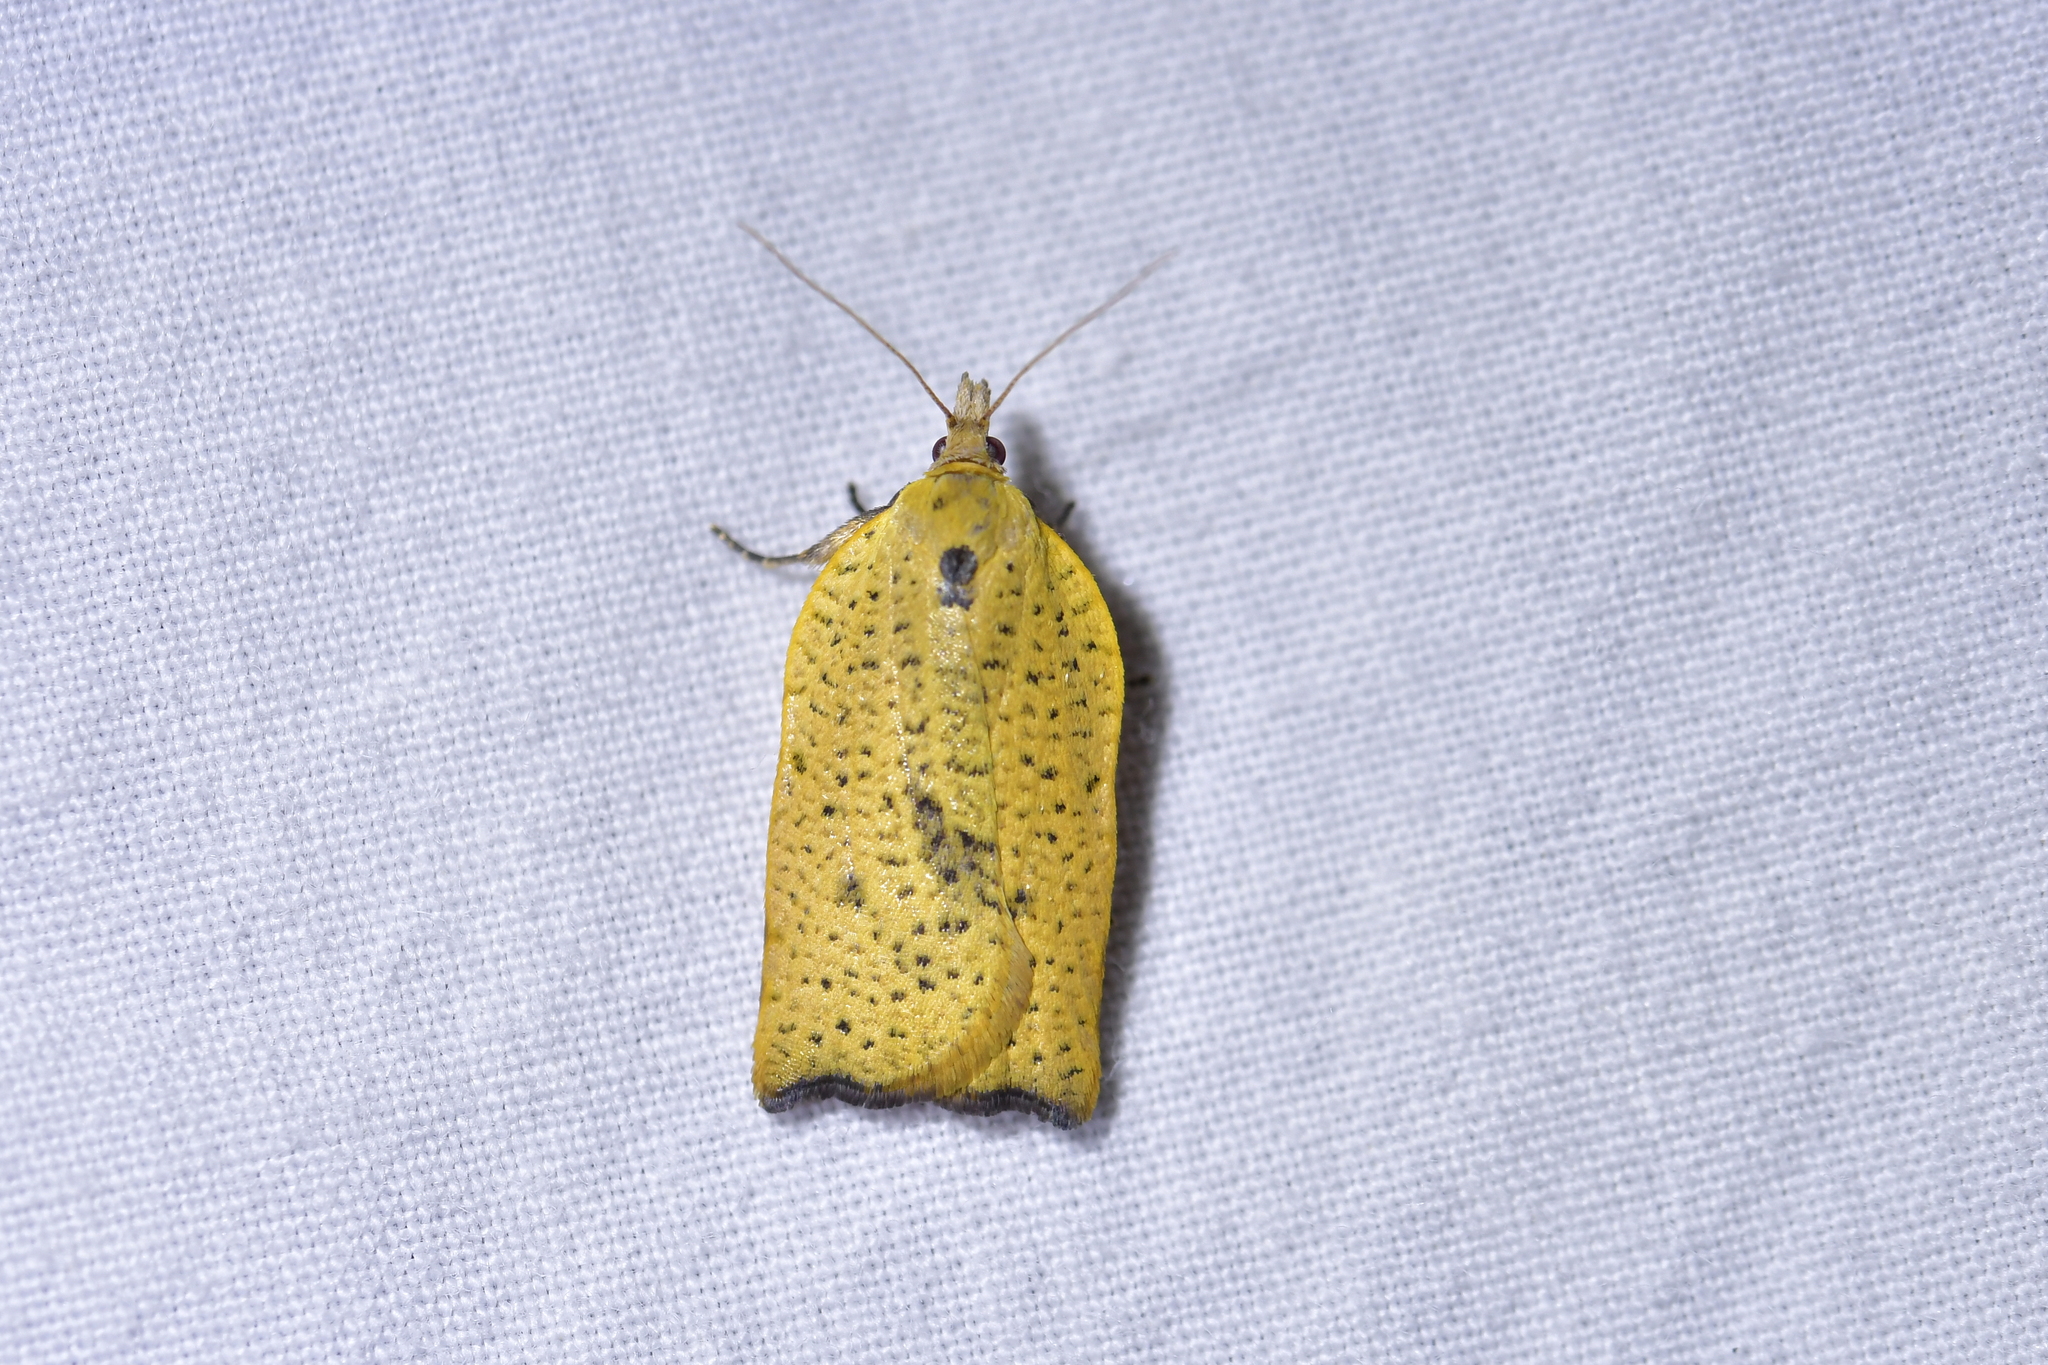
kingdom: Animalia
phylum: Arthropoda
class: Insecta
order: Lepidoptera
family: Tortricidae
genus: Apoctena
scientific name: Apoctena flavescens
